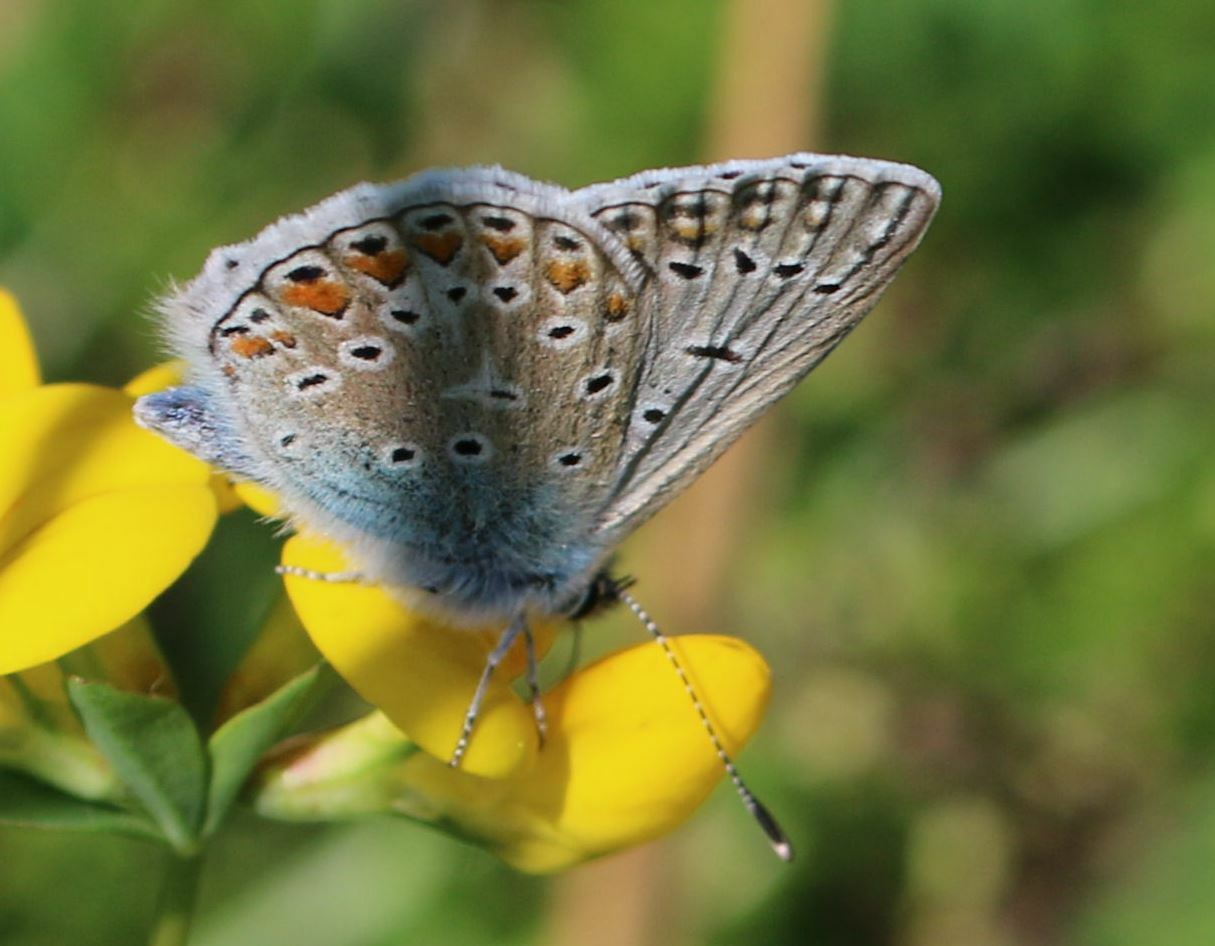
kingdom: Animalia
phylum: Arthropoda
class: Insecta
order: Lepidoptera
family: Lycaenidae
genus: Polyommatus
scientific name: Polyommatus icarus
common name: Common blue
